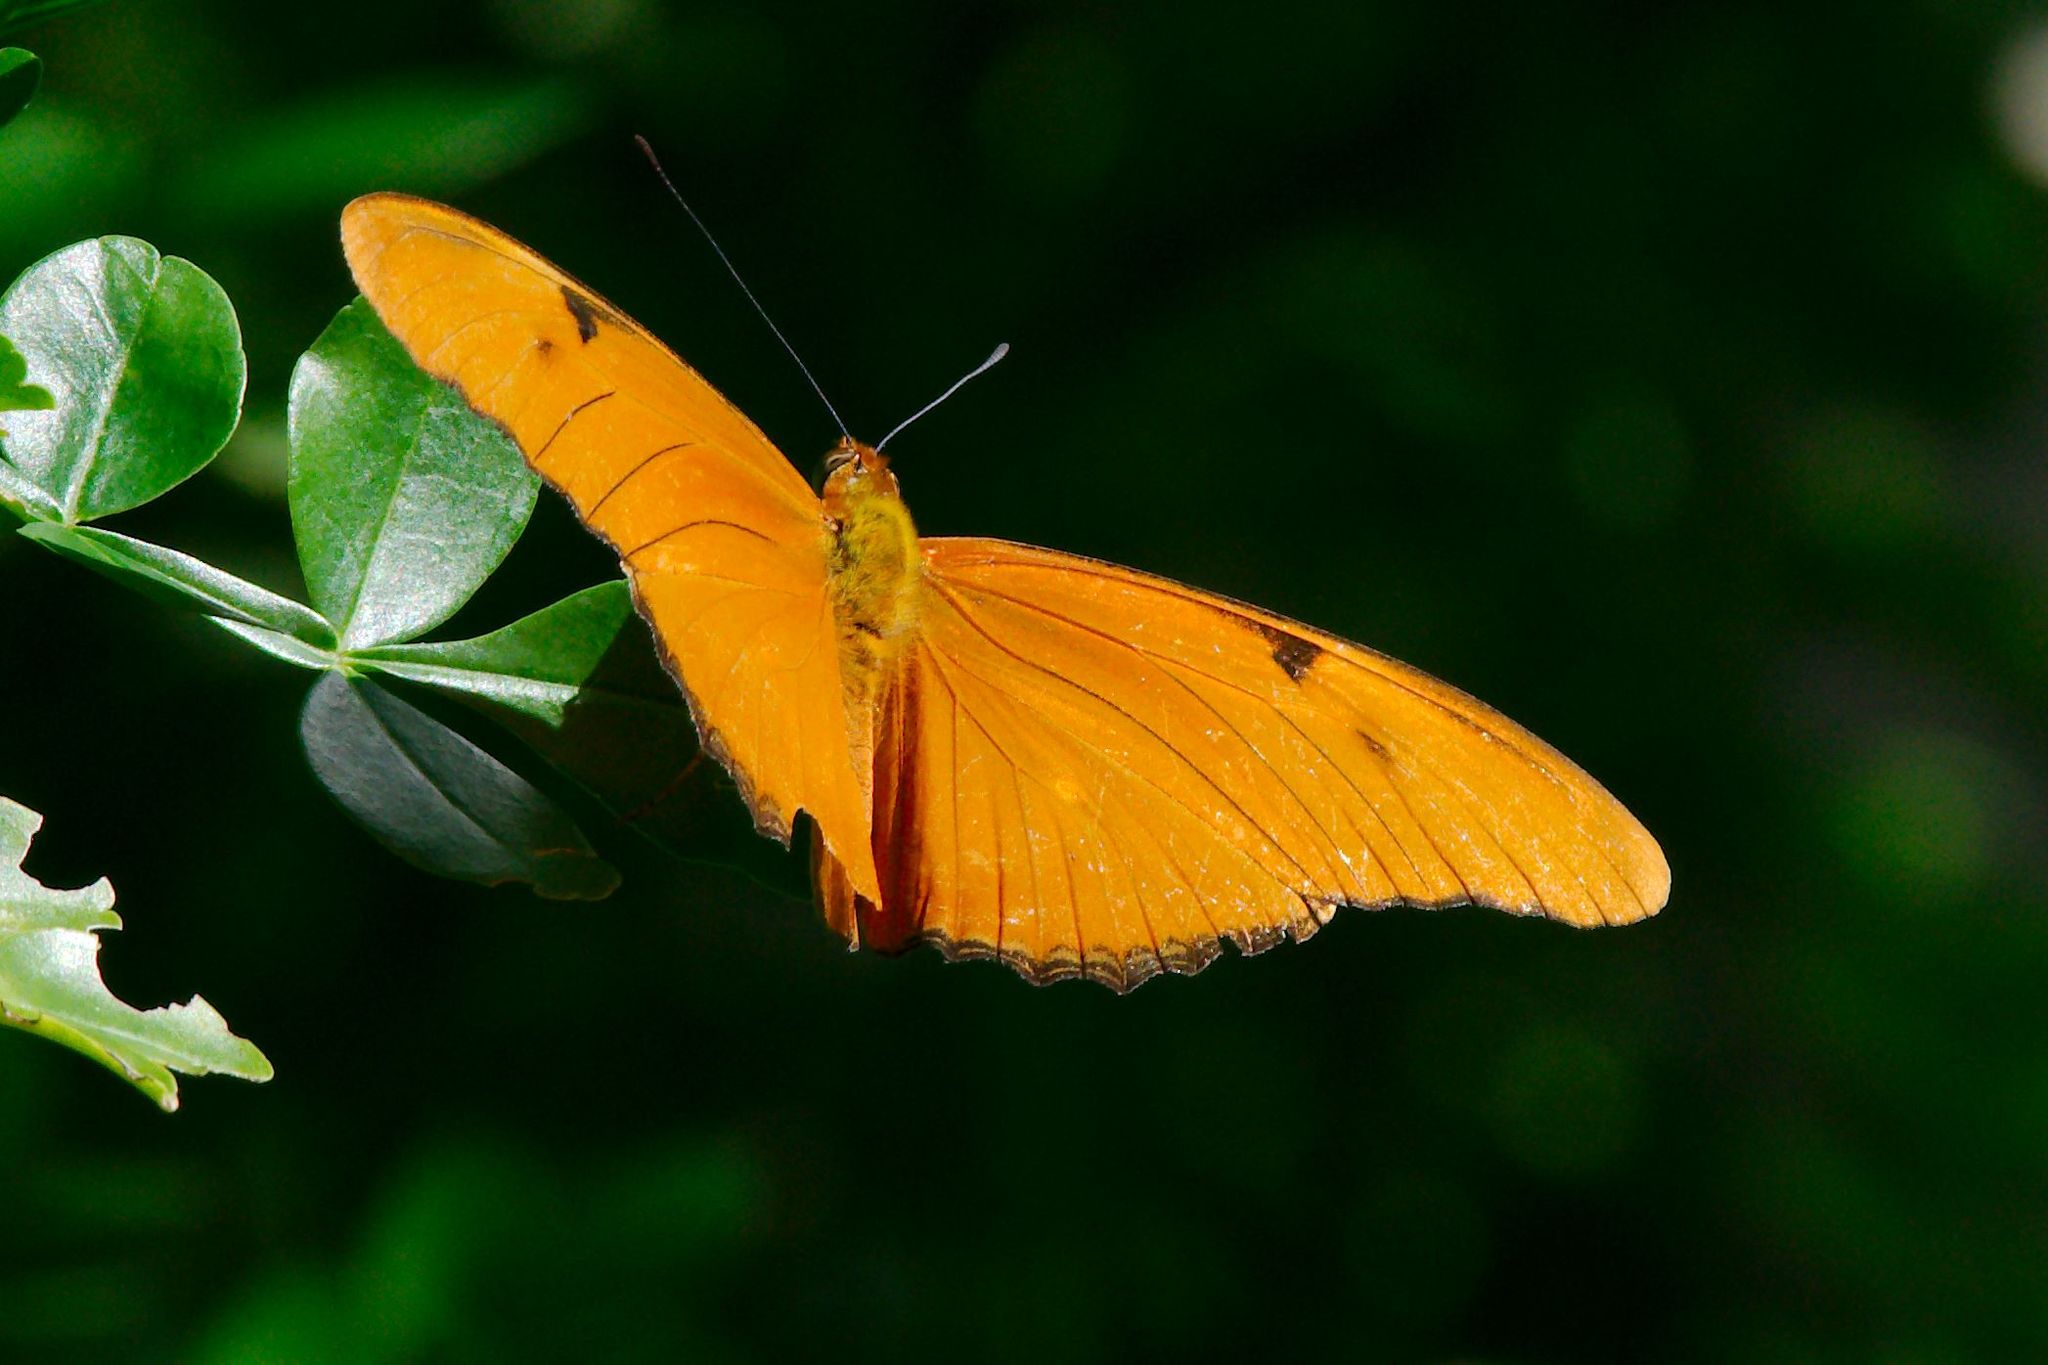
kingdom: Animalia
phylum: Arthropoda
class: Insecta
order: Lepidoptera
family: Nymphalidae
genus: Dryas
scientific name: Dryas iulia
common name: Flambeau
